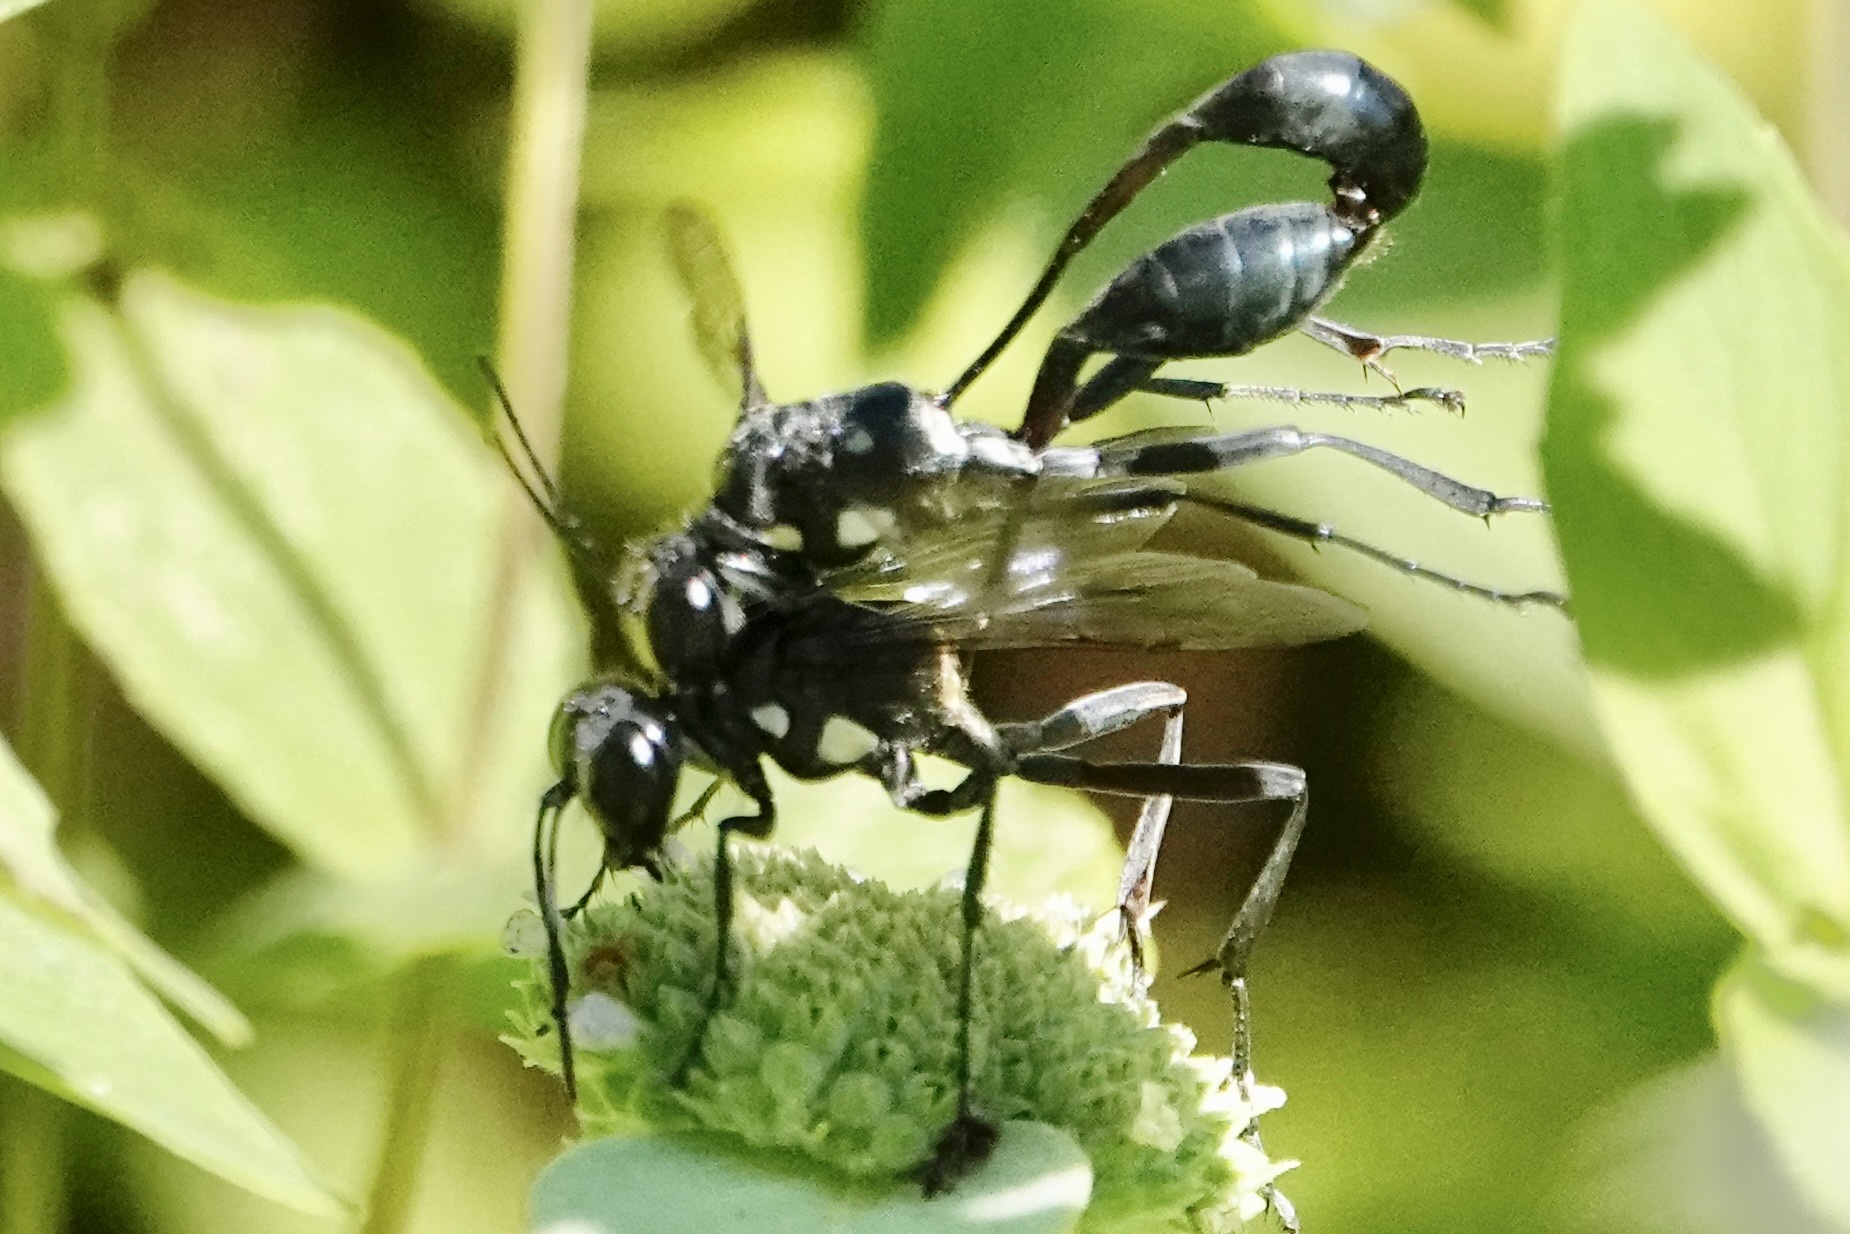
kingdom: Animalia
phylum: Arthropoda
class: Insecta
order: Hymenoptera
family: Sphecidae
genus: Eremnophila
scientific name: Eremnophila aureonotata
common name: Gold-marked thread-waisted wasp
